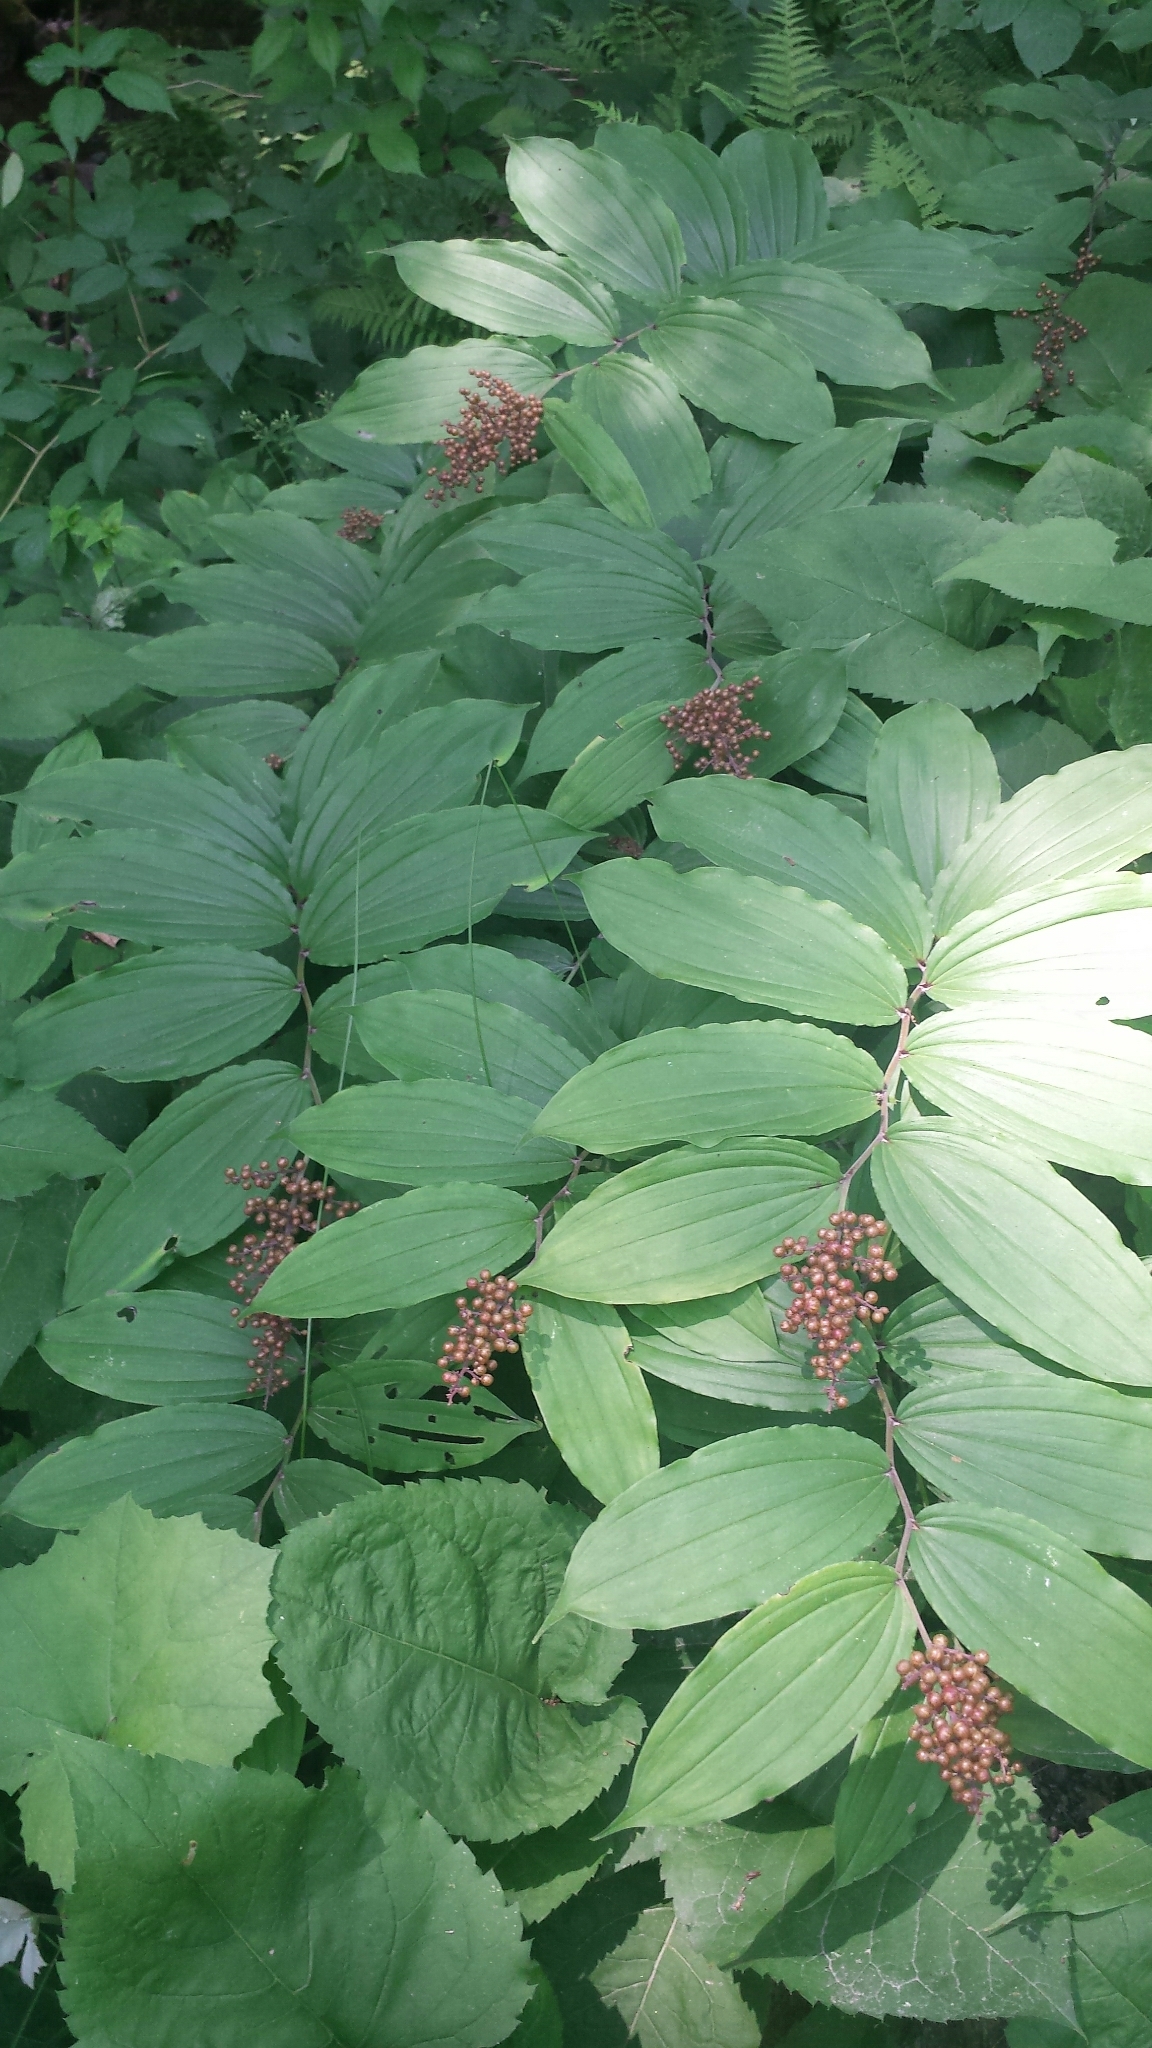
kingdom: Plantae
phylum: Tracheophyta
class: Liliopsida
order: Asparagales
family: Asparagaceae
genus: Maianthemum
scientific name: Maianthemum racemosum
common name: False spikenard
